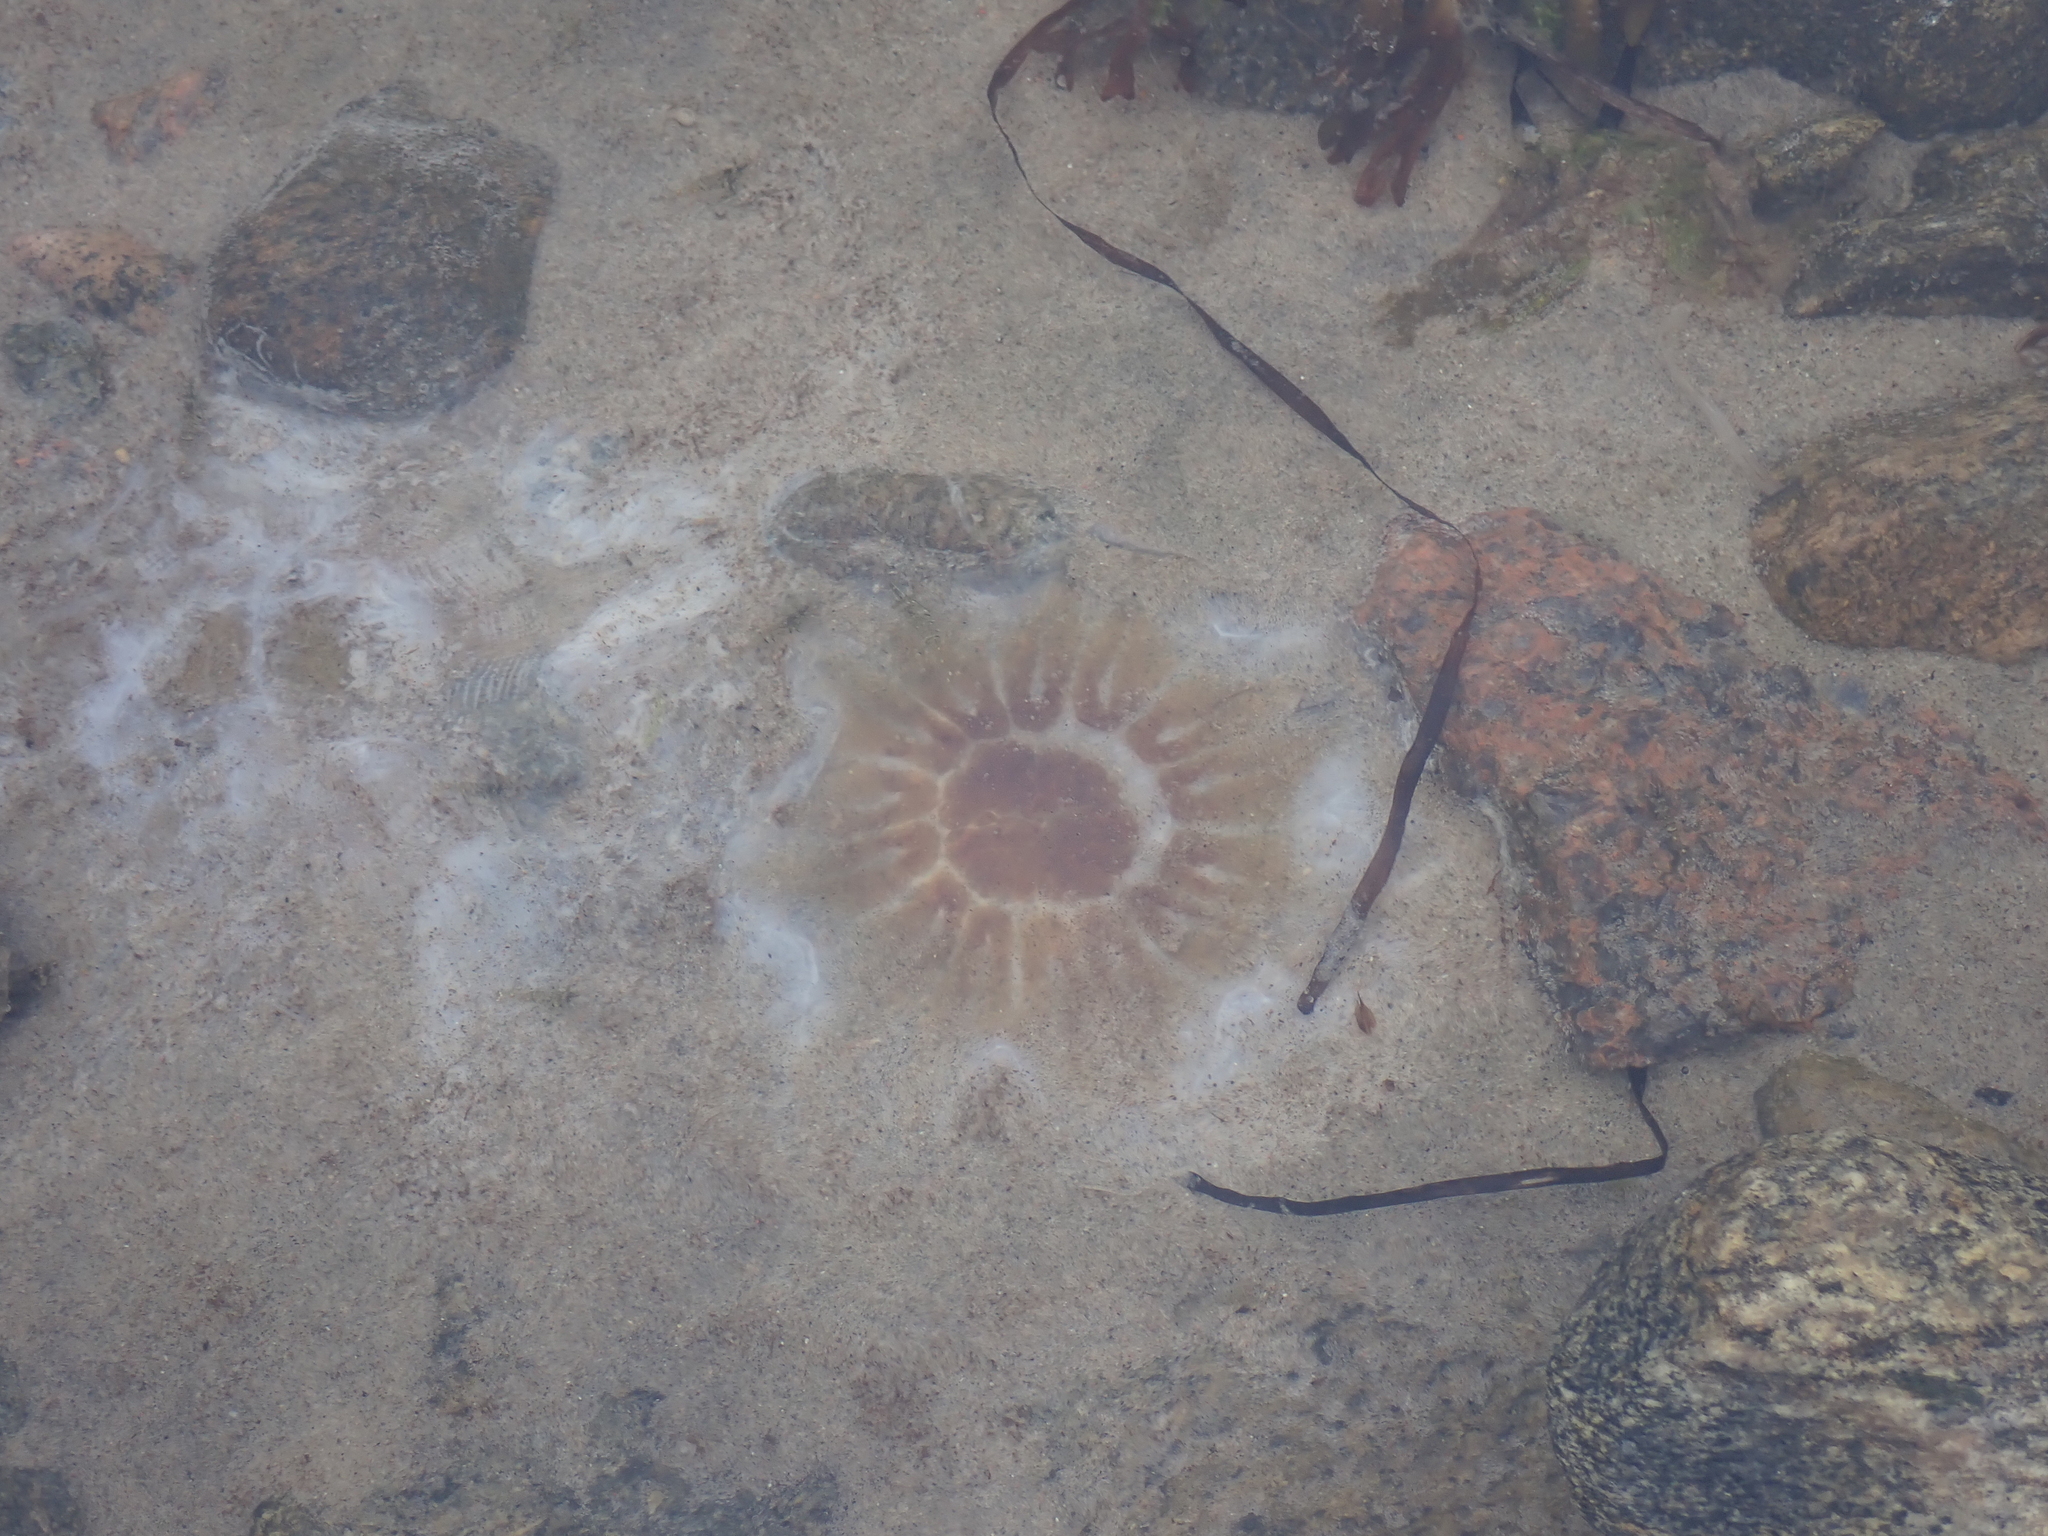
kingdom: Animalia
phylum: Cnidaria
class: Scyphozoa
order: Semaeostomeae
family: Cyaneidae
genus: Cyanea
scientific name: Cyanea capillata
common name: Lion's mane jellyfish
